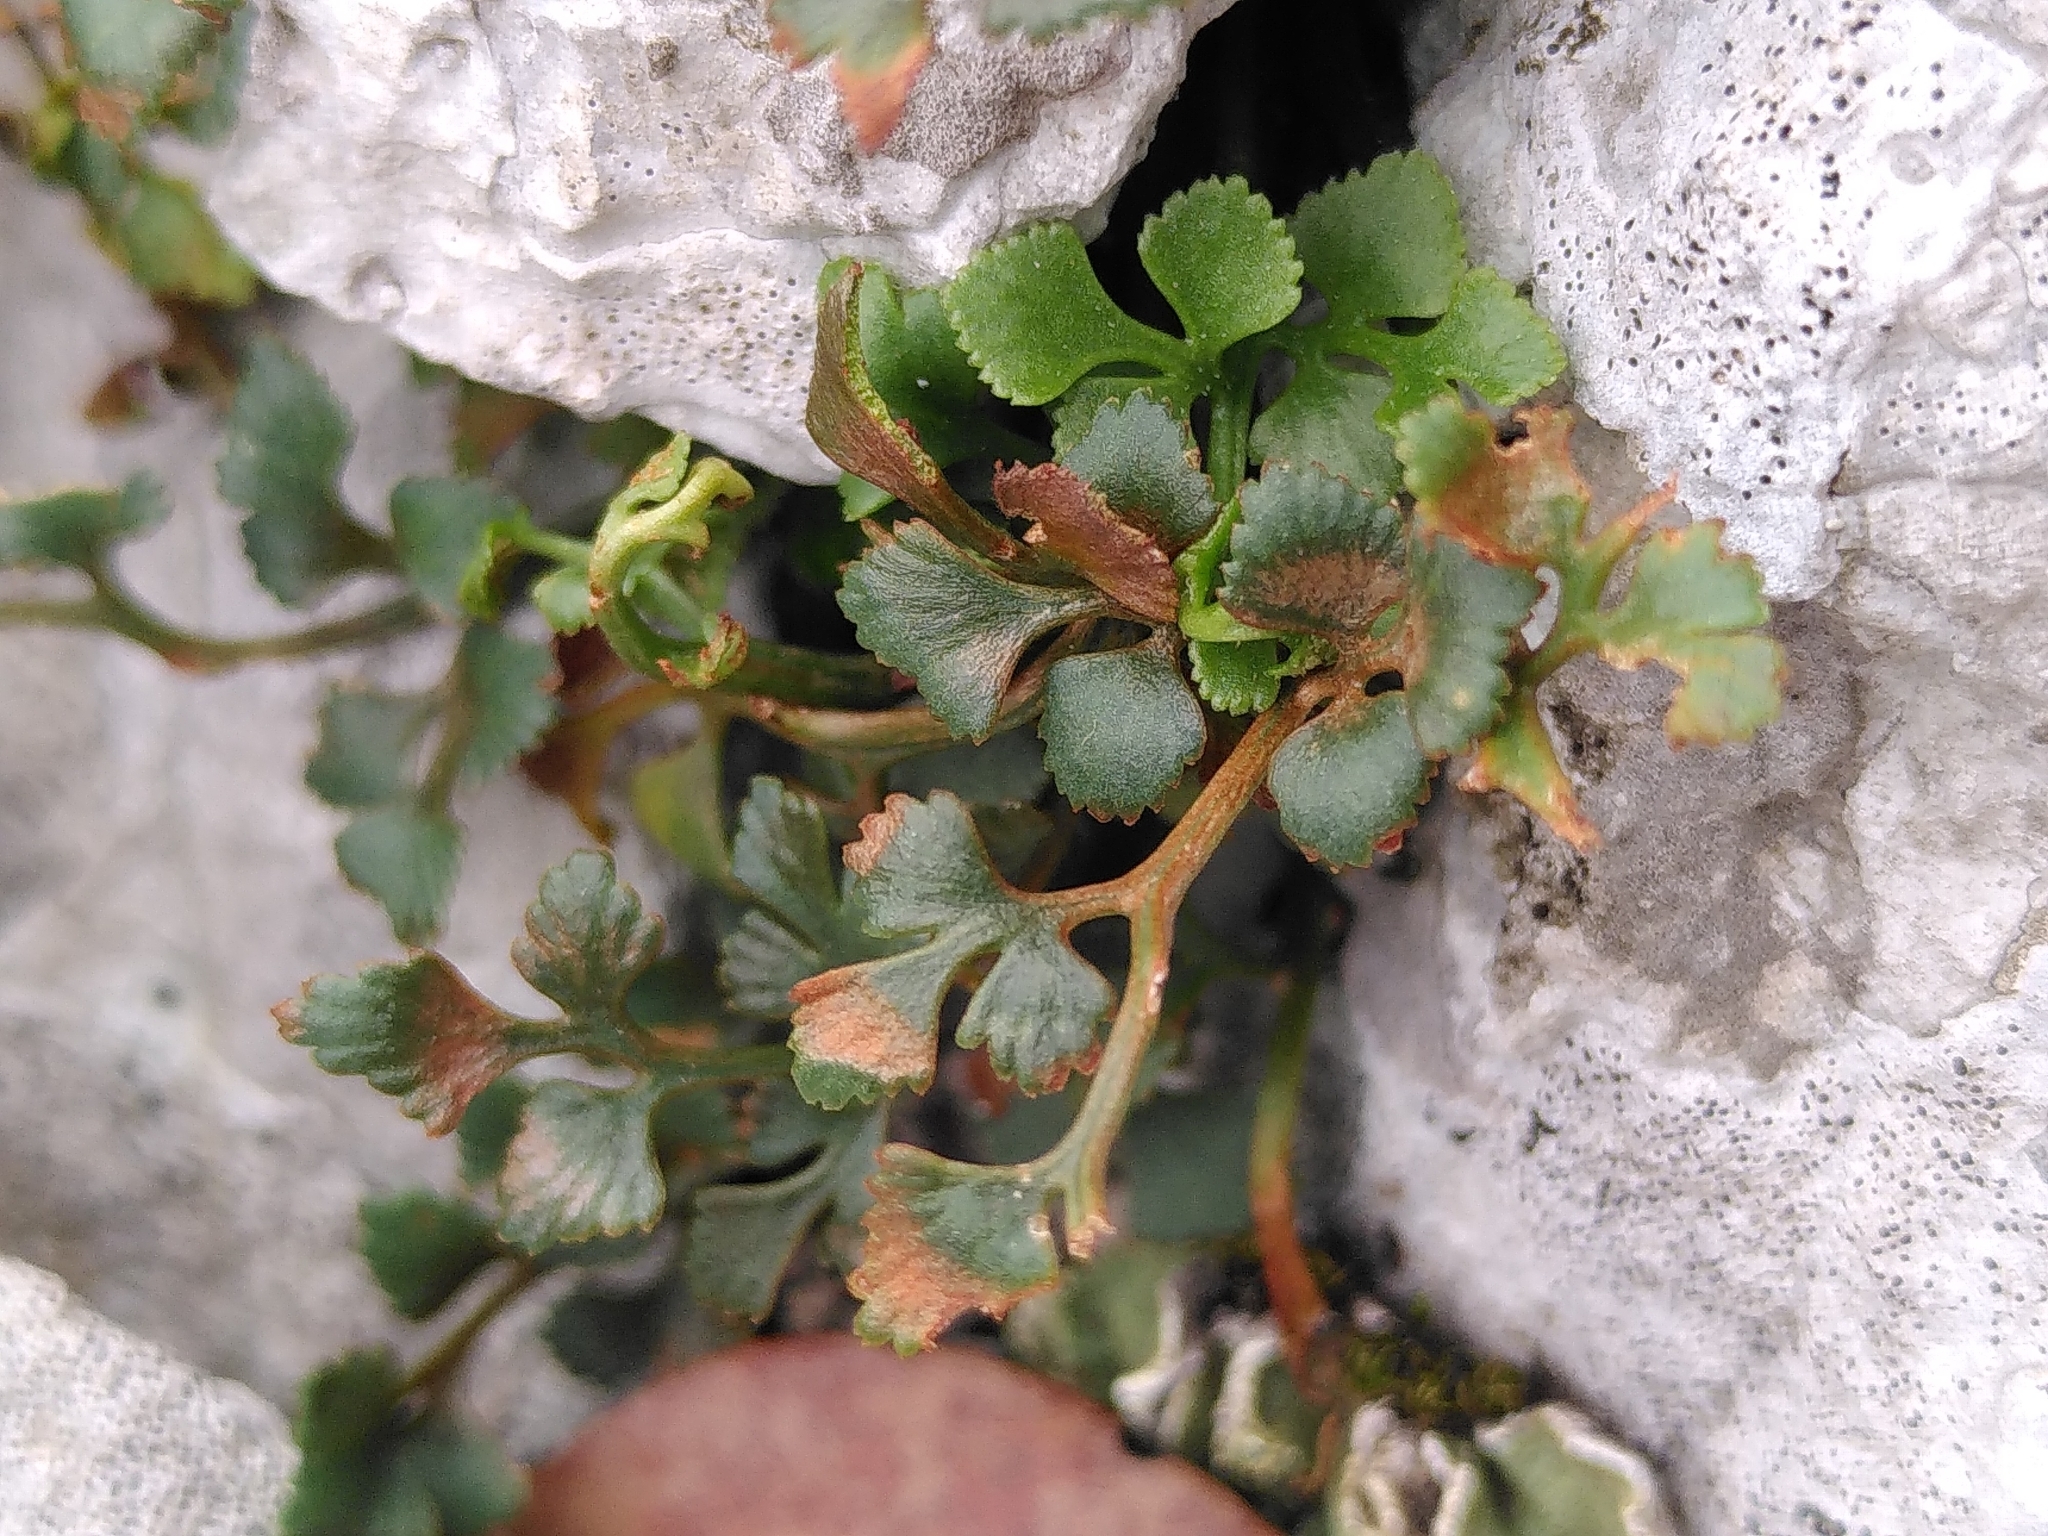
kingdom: Plantae
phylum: Tracheophyta
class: Polypodiopsida
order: Polypodiales
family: Aspleniaceae
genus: Asplenium
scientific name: Asplenium ruta-muraria
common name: Wall-rue
